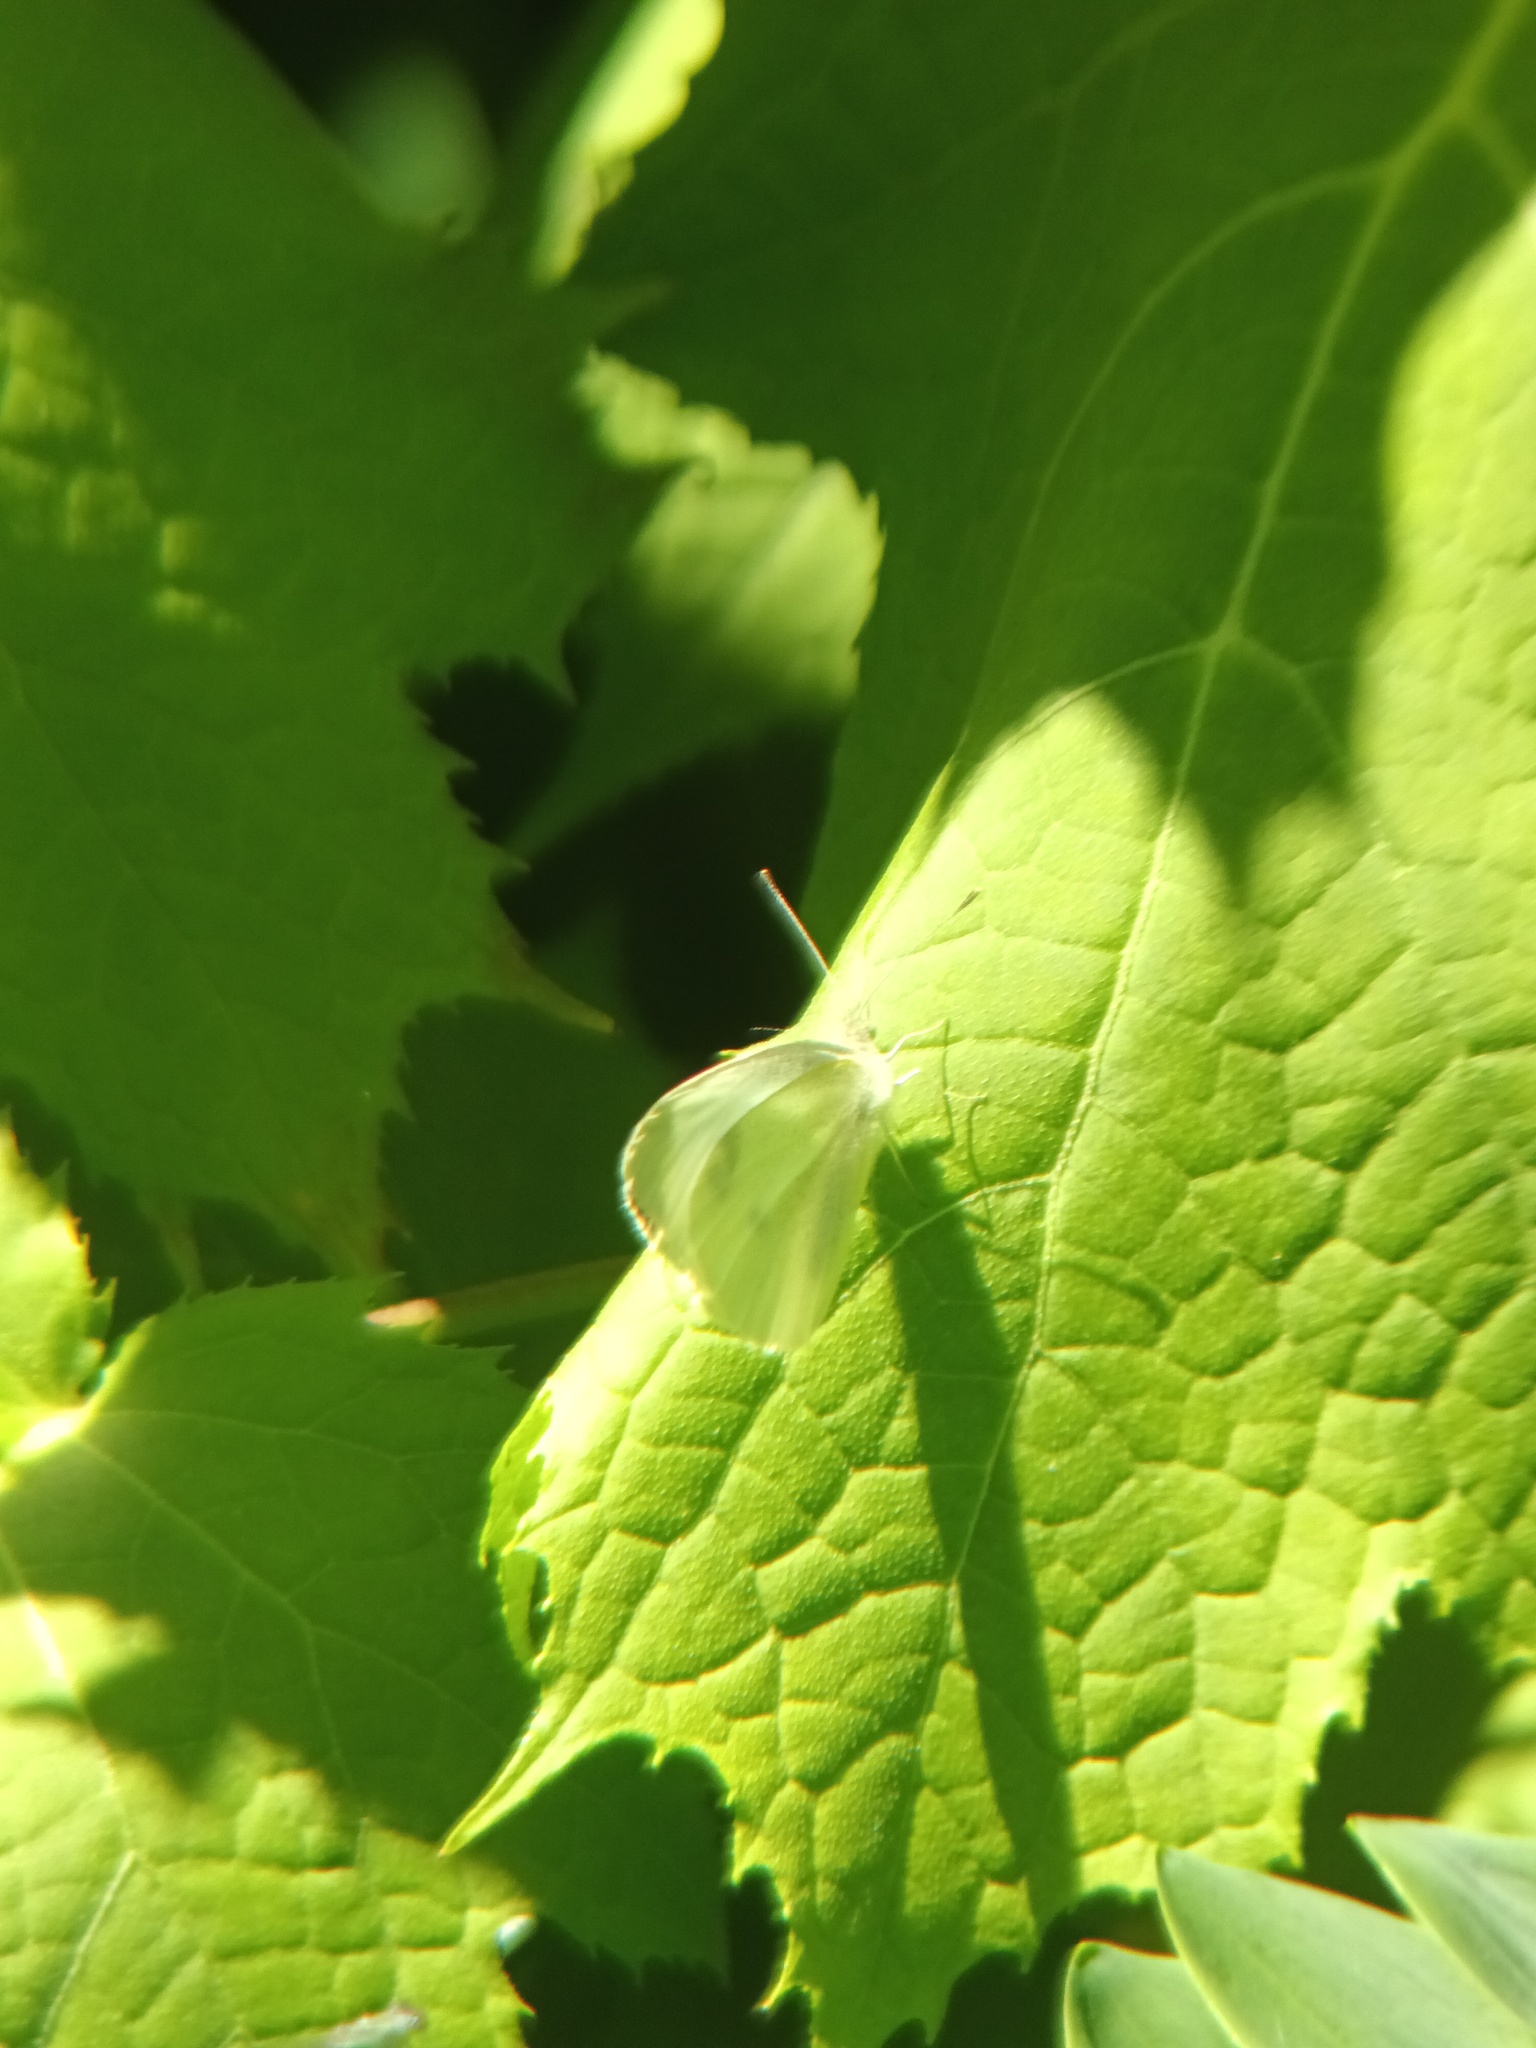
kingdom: Animalia
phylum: Arthropoda
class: Insecta
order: Lepidoptera
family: Pieridae
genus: Pieris
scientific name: Pieris rapae
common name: Small white
